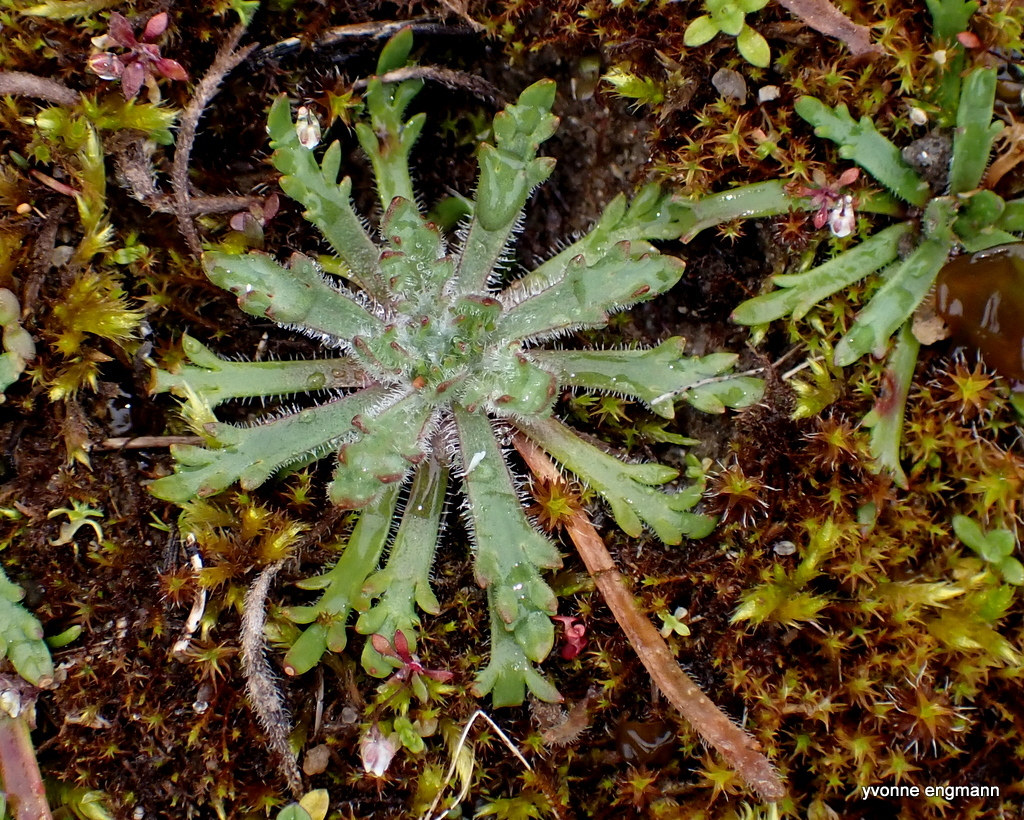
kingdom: Plantae
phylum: Tracheophyta
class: Magnoliopsida
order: Lamiales
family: Plantaginaceae
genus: Plantago
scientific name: Plantago coronopus
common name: Buck's-horn plantain
